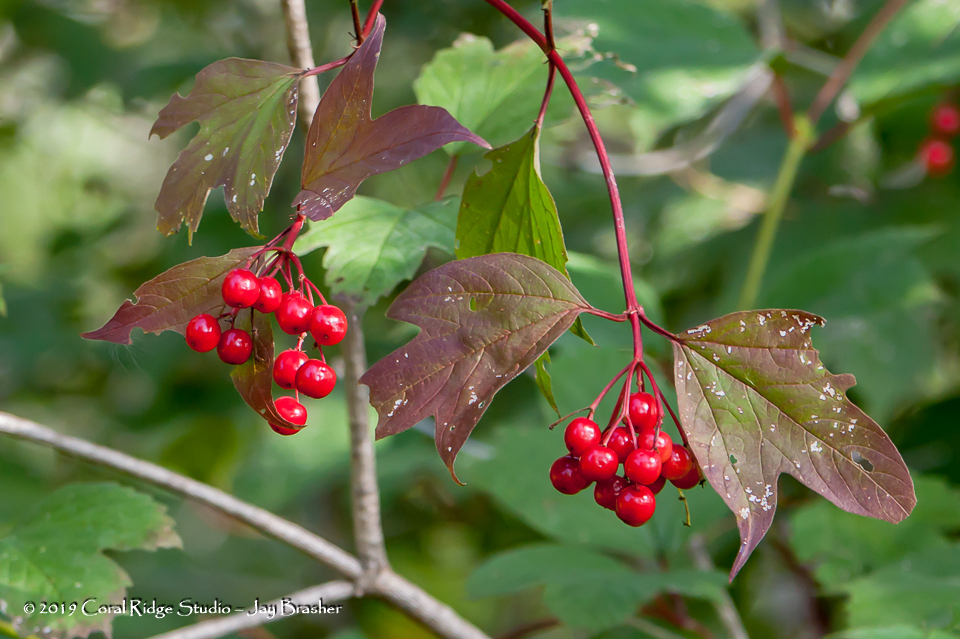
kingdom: Plantae
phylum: Tracheophyta
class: Magnoliopsida
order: Dipsacales
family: Viburnaceae
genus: Viburnum
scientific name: Viburnum opulus
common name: Guelder-rose
